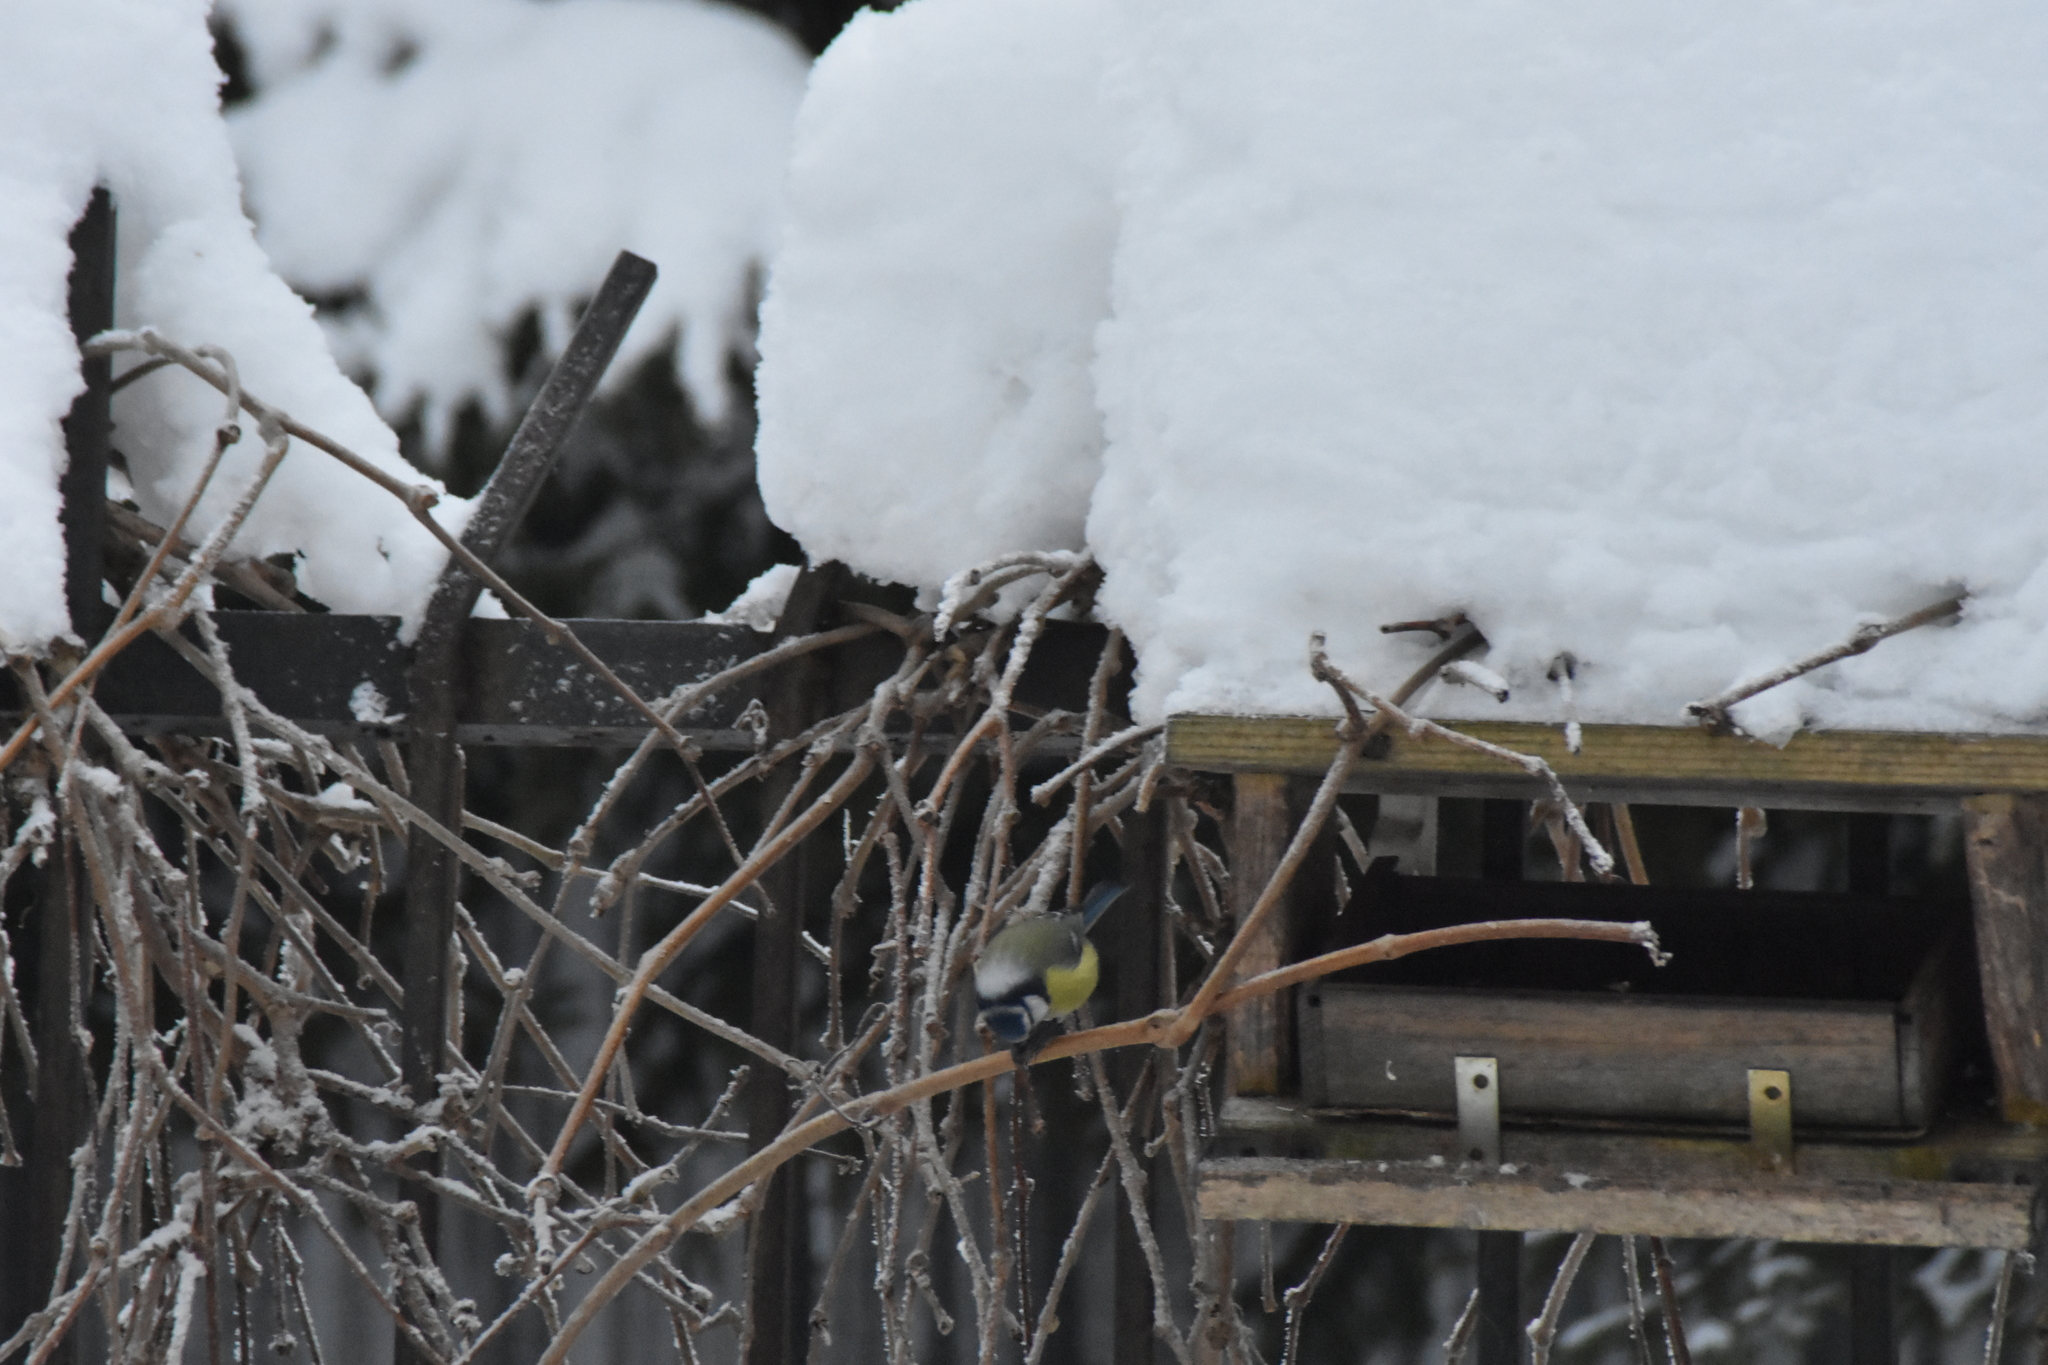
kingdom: Animalia
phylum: Chordata
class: Aves
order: Passeriformes
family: Paridae
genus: Cyanistes
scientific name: Cyanistes caeruleus
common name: Eurasian blue tit
